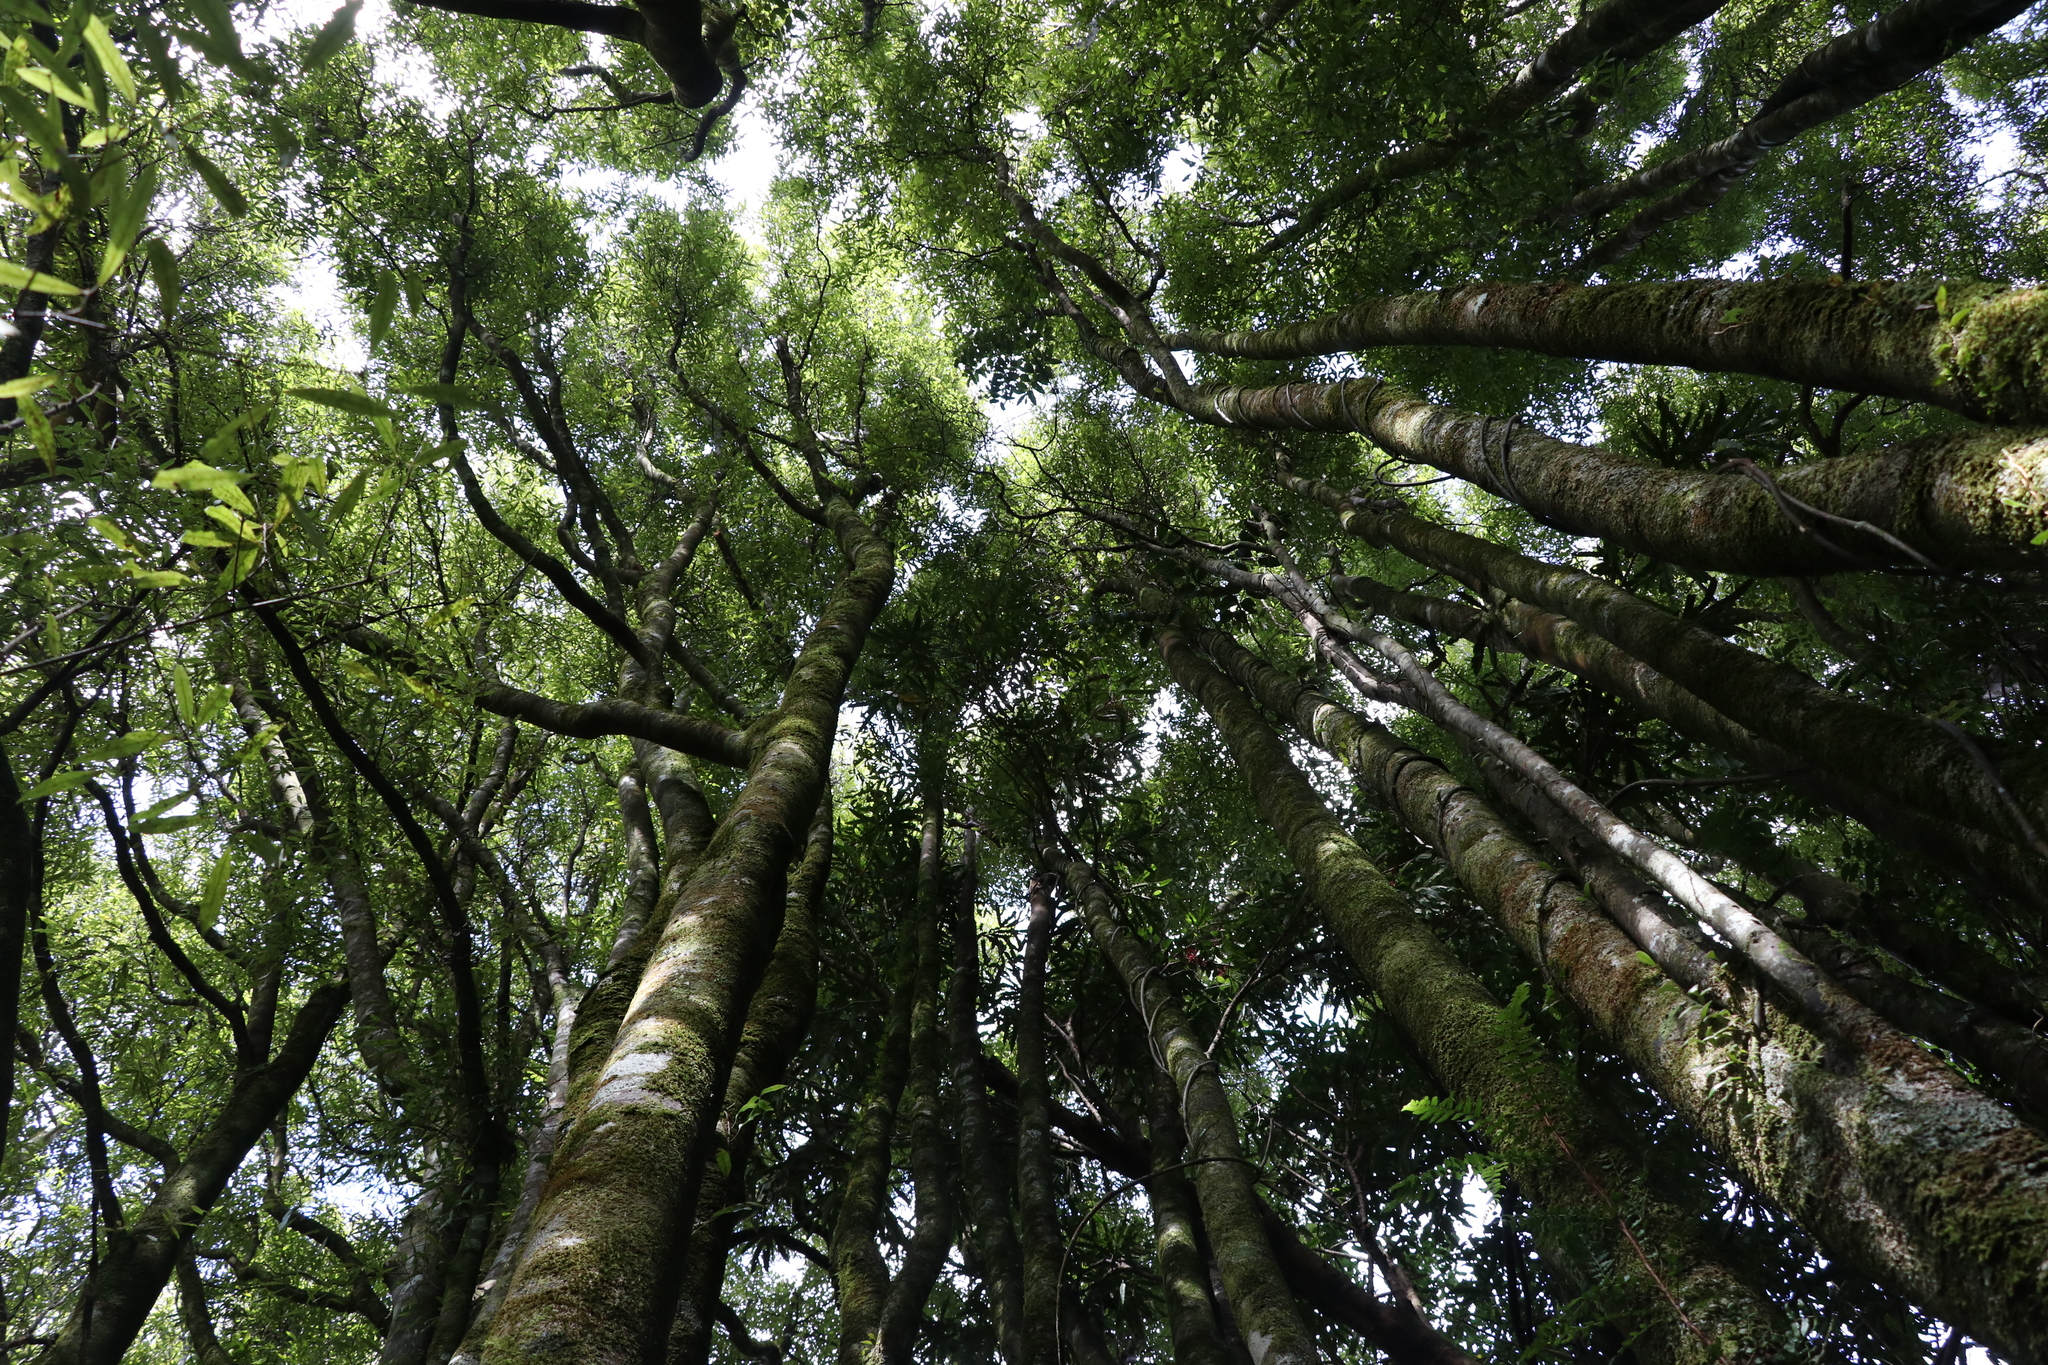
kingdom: Plantae
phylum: Tracheophyta
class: Magnoliopsida
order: Laurales
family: Lauraceae
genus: Beilschmiedia
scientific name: Beilschmiedia tawa
